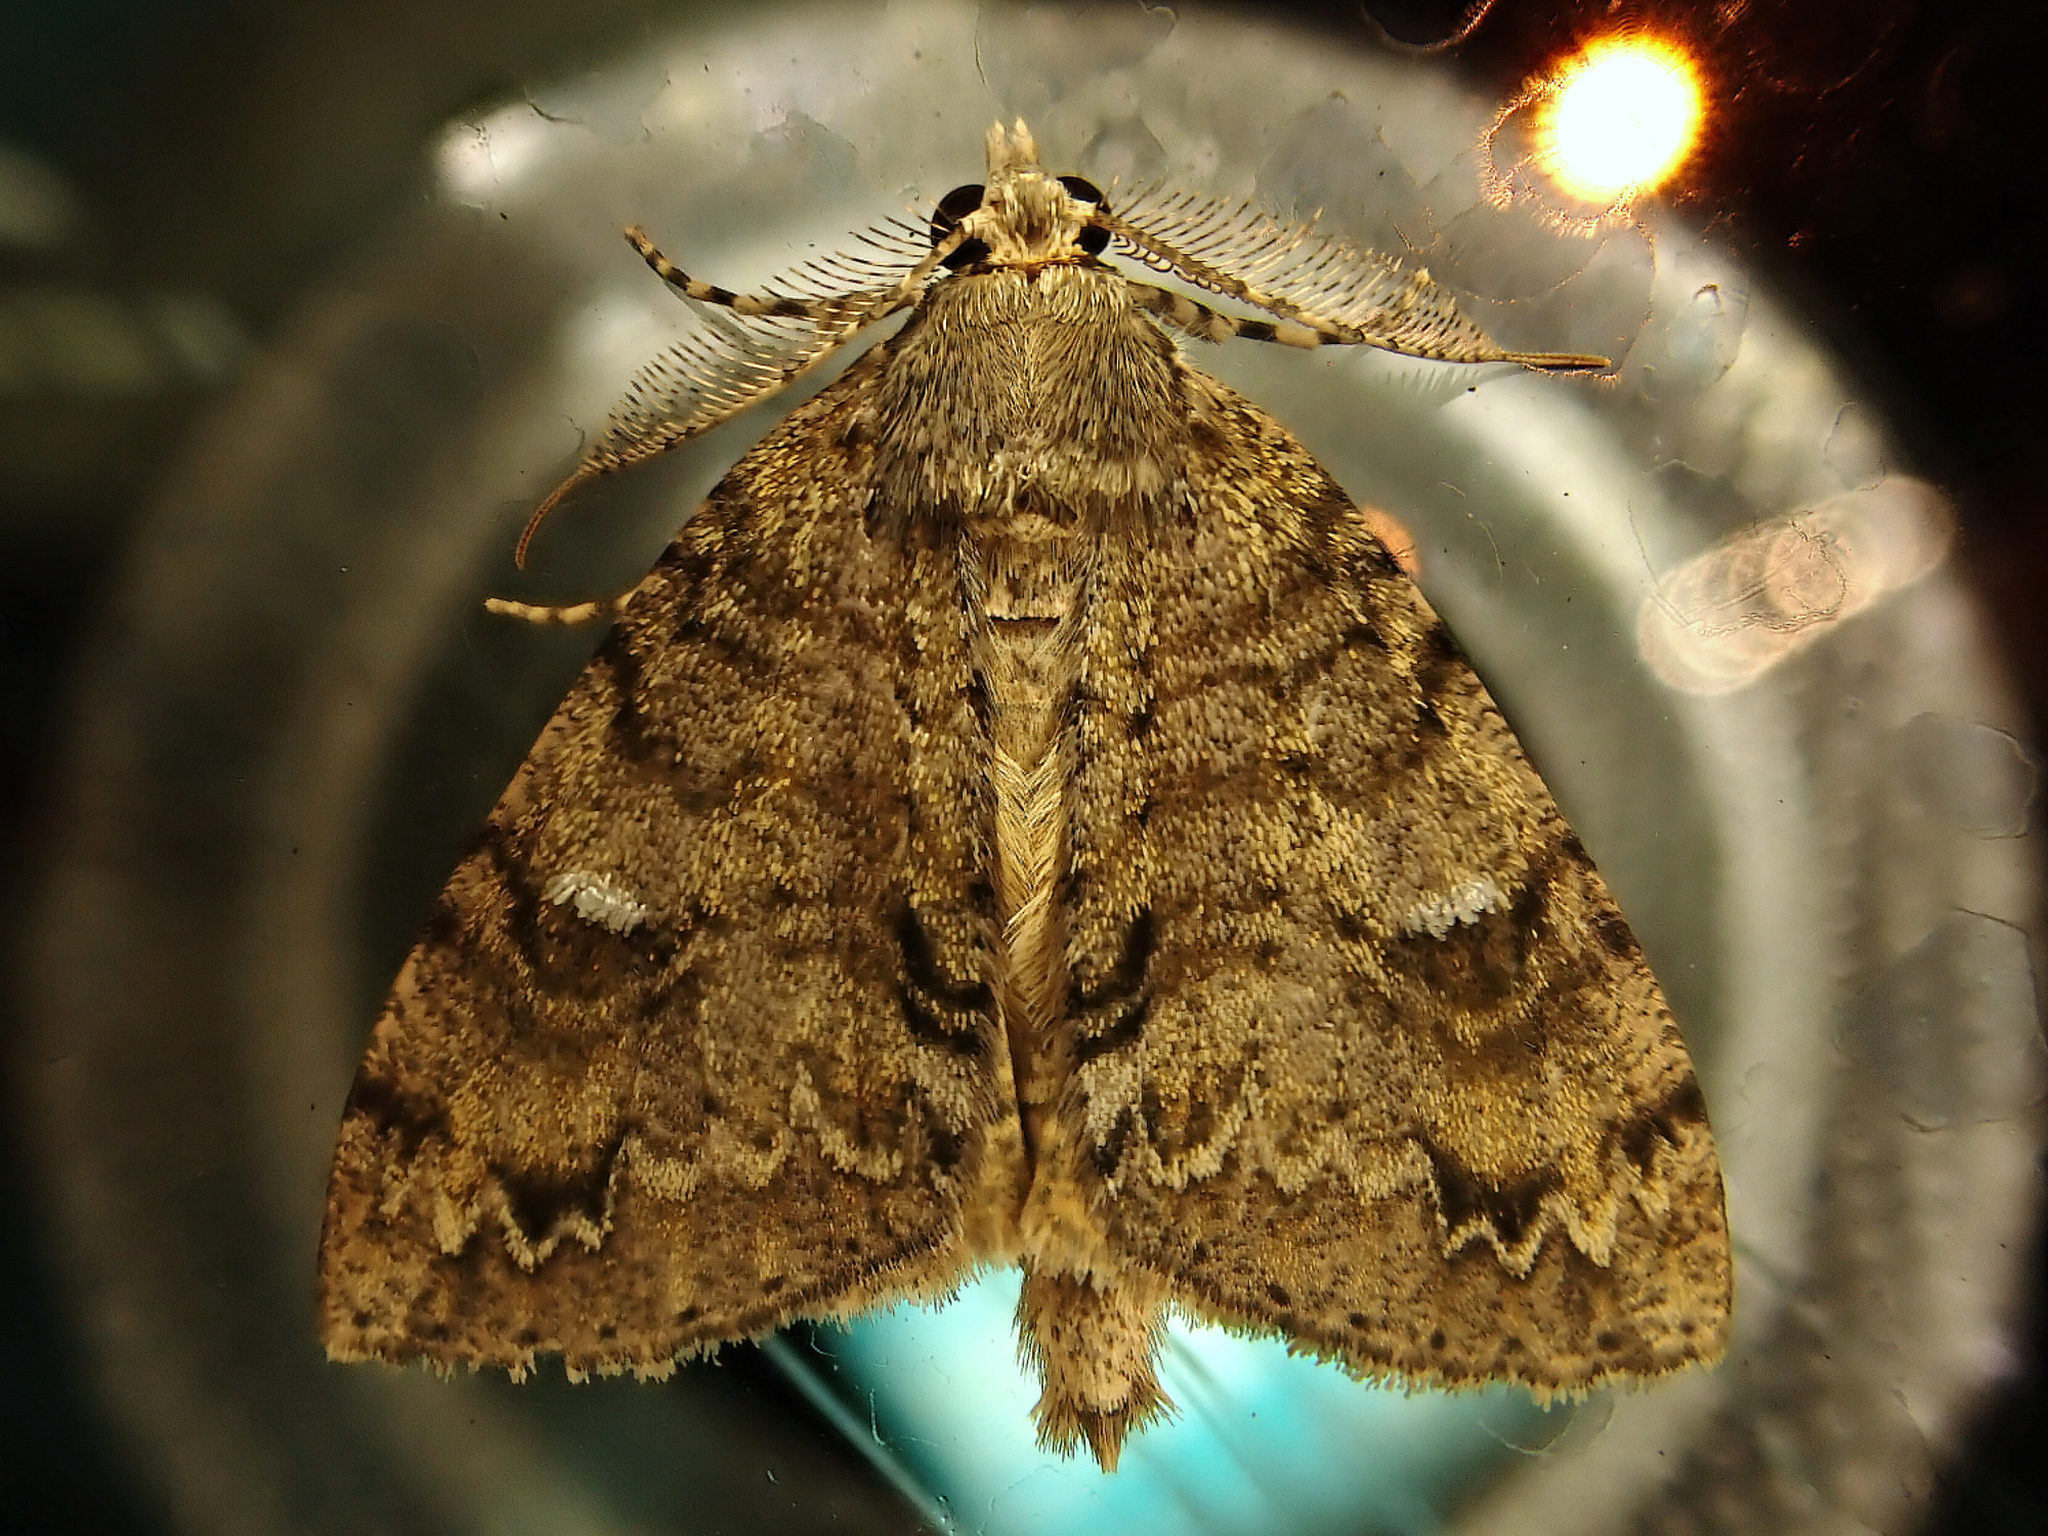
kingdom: Animalia
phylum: Arthropoda
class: Insecta
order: Lepidoptera
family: Geometridae
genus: Pseudocoremia
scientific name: Pseudocoremia suavis
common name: Common forest looper
